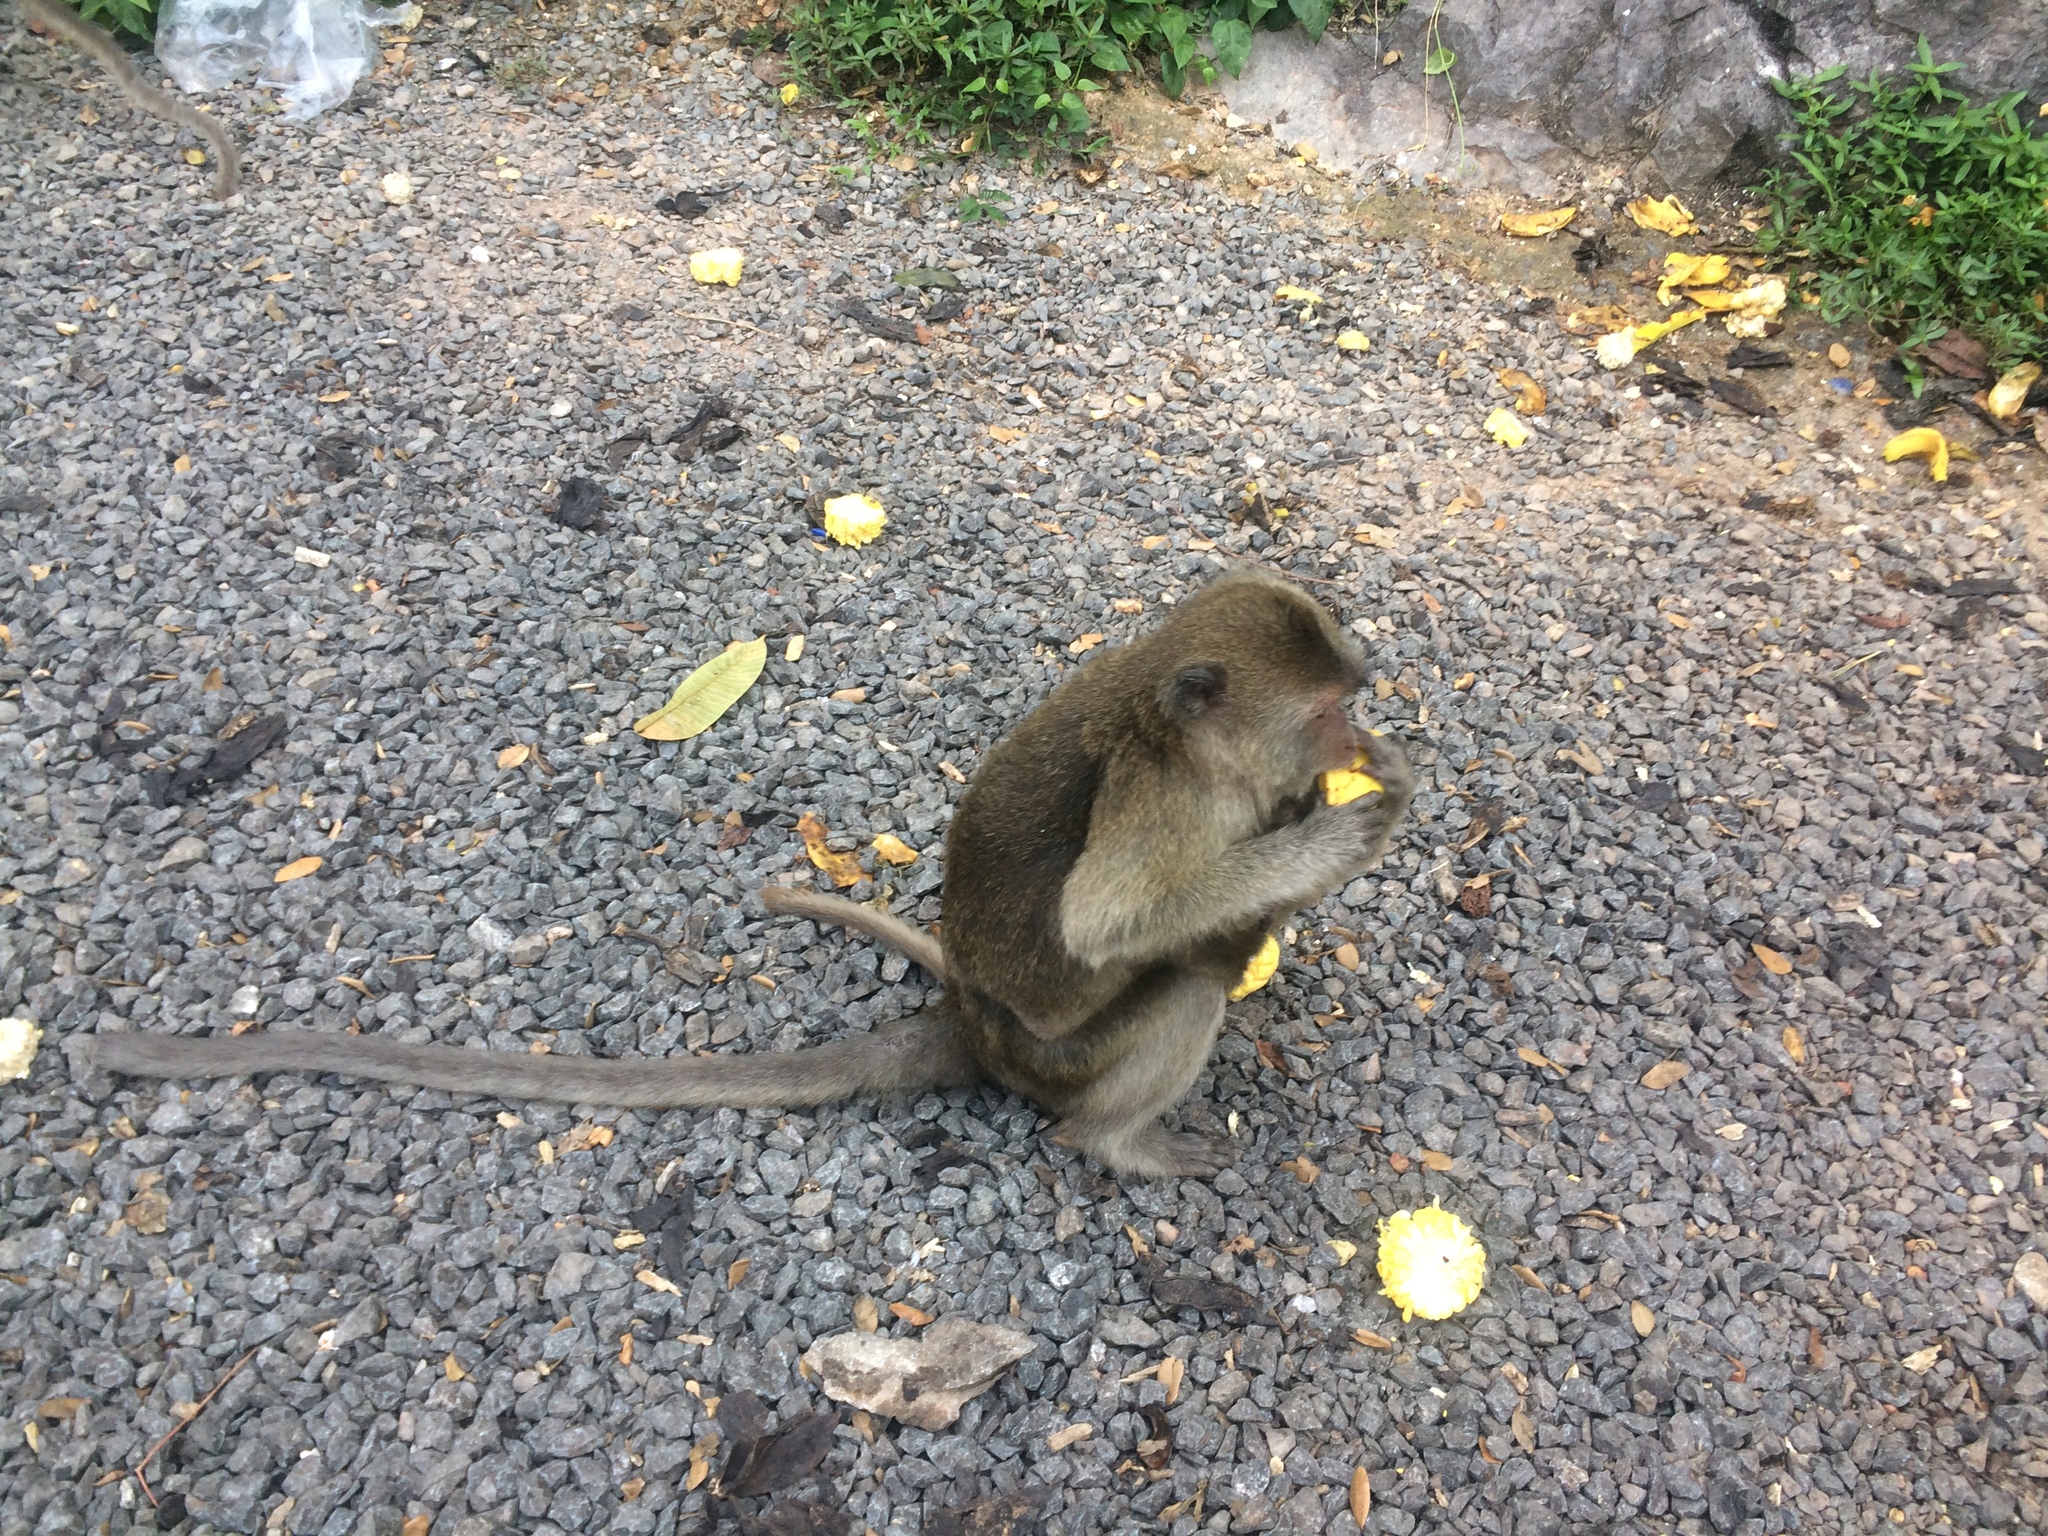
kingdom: Animalia
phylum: Chordata
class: Mammalia
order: Primates
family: Cercopithecidae
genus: Macaca
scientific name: Macaca fascicularis
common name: Crab-eating macaque
